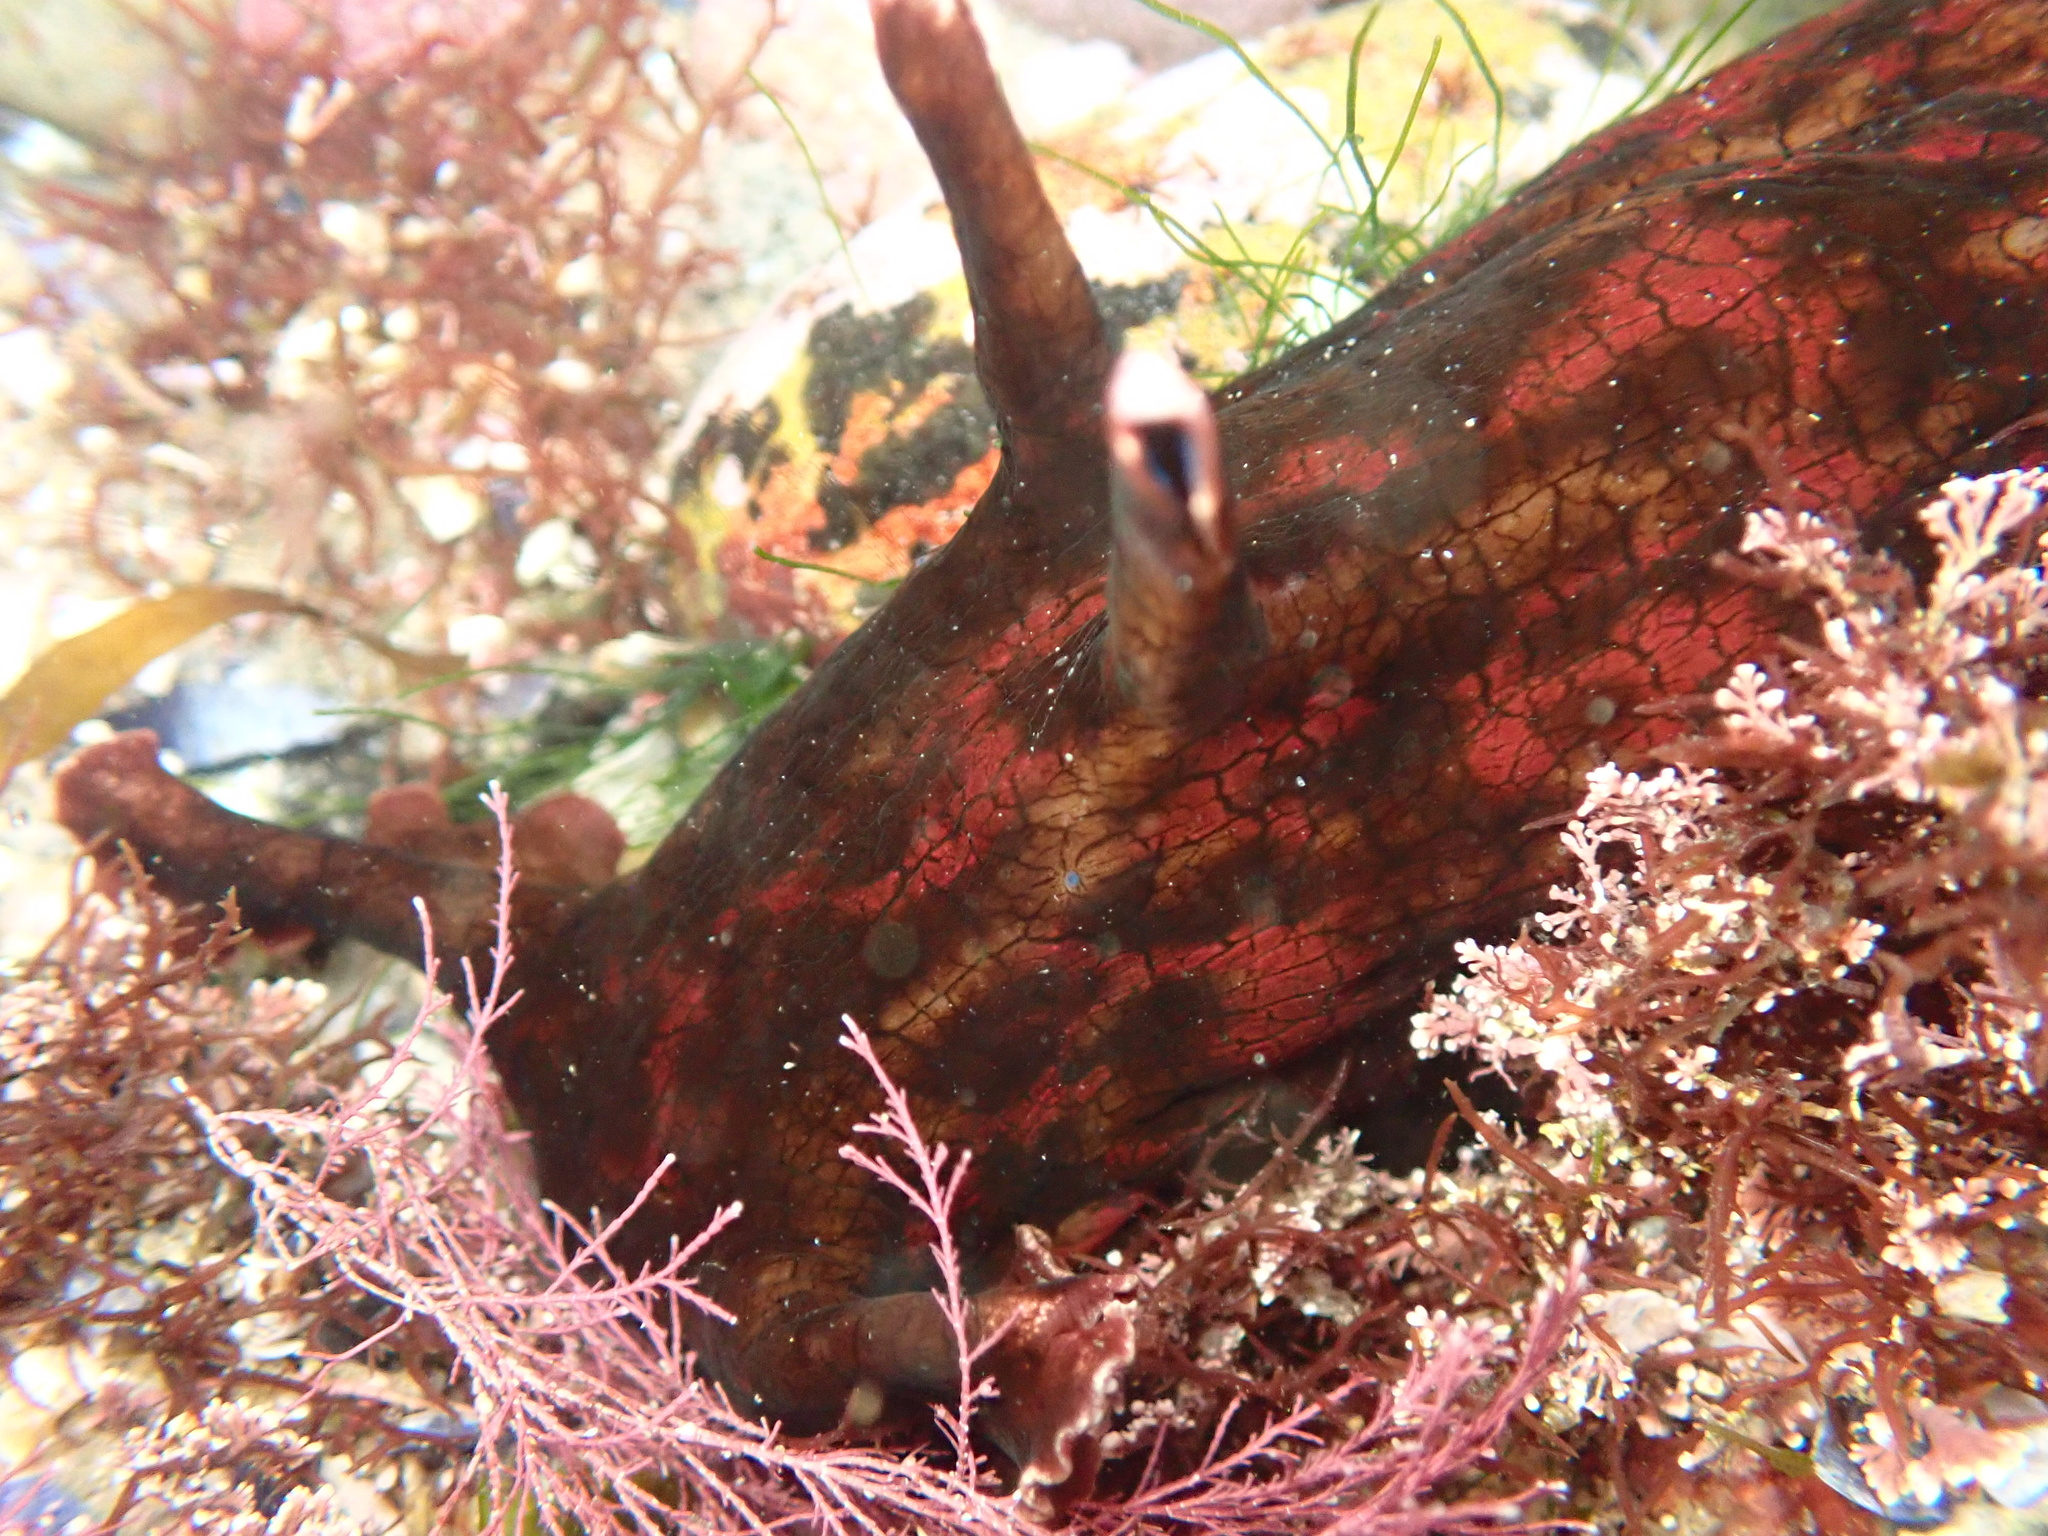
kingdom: Animalia
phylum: Mollusca
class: Gastropoda
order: Aplysiida
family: Aplysiidae
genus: Aplysia
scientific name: Aplysia californica
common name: California seahare
